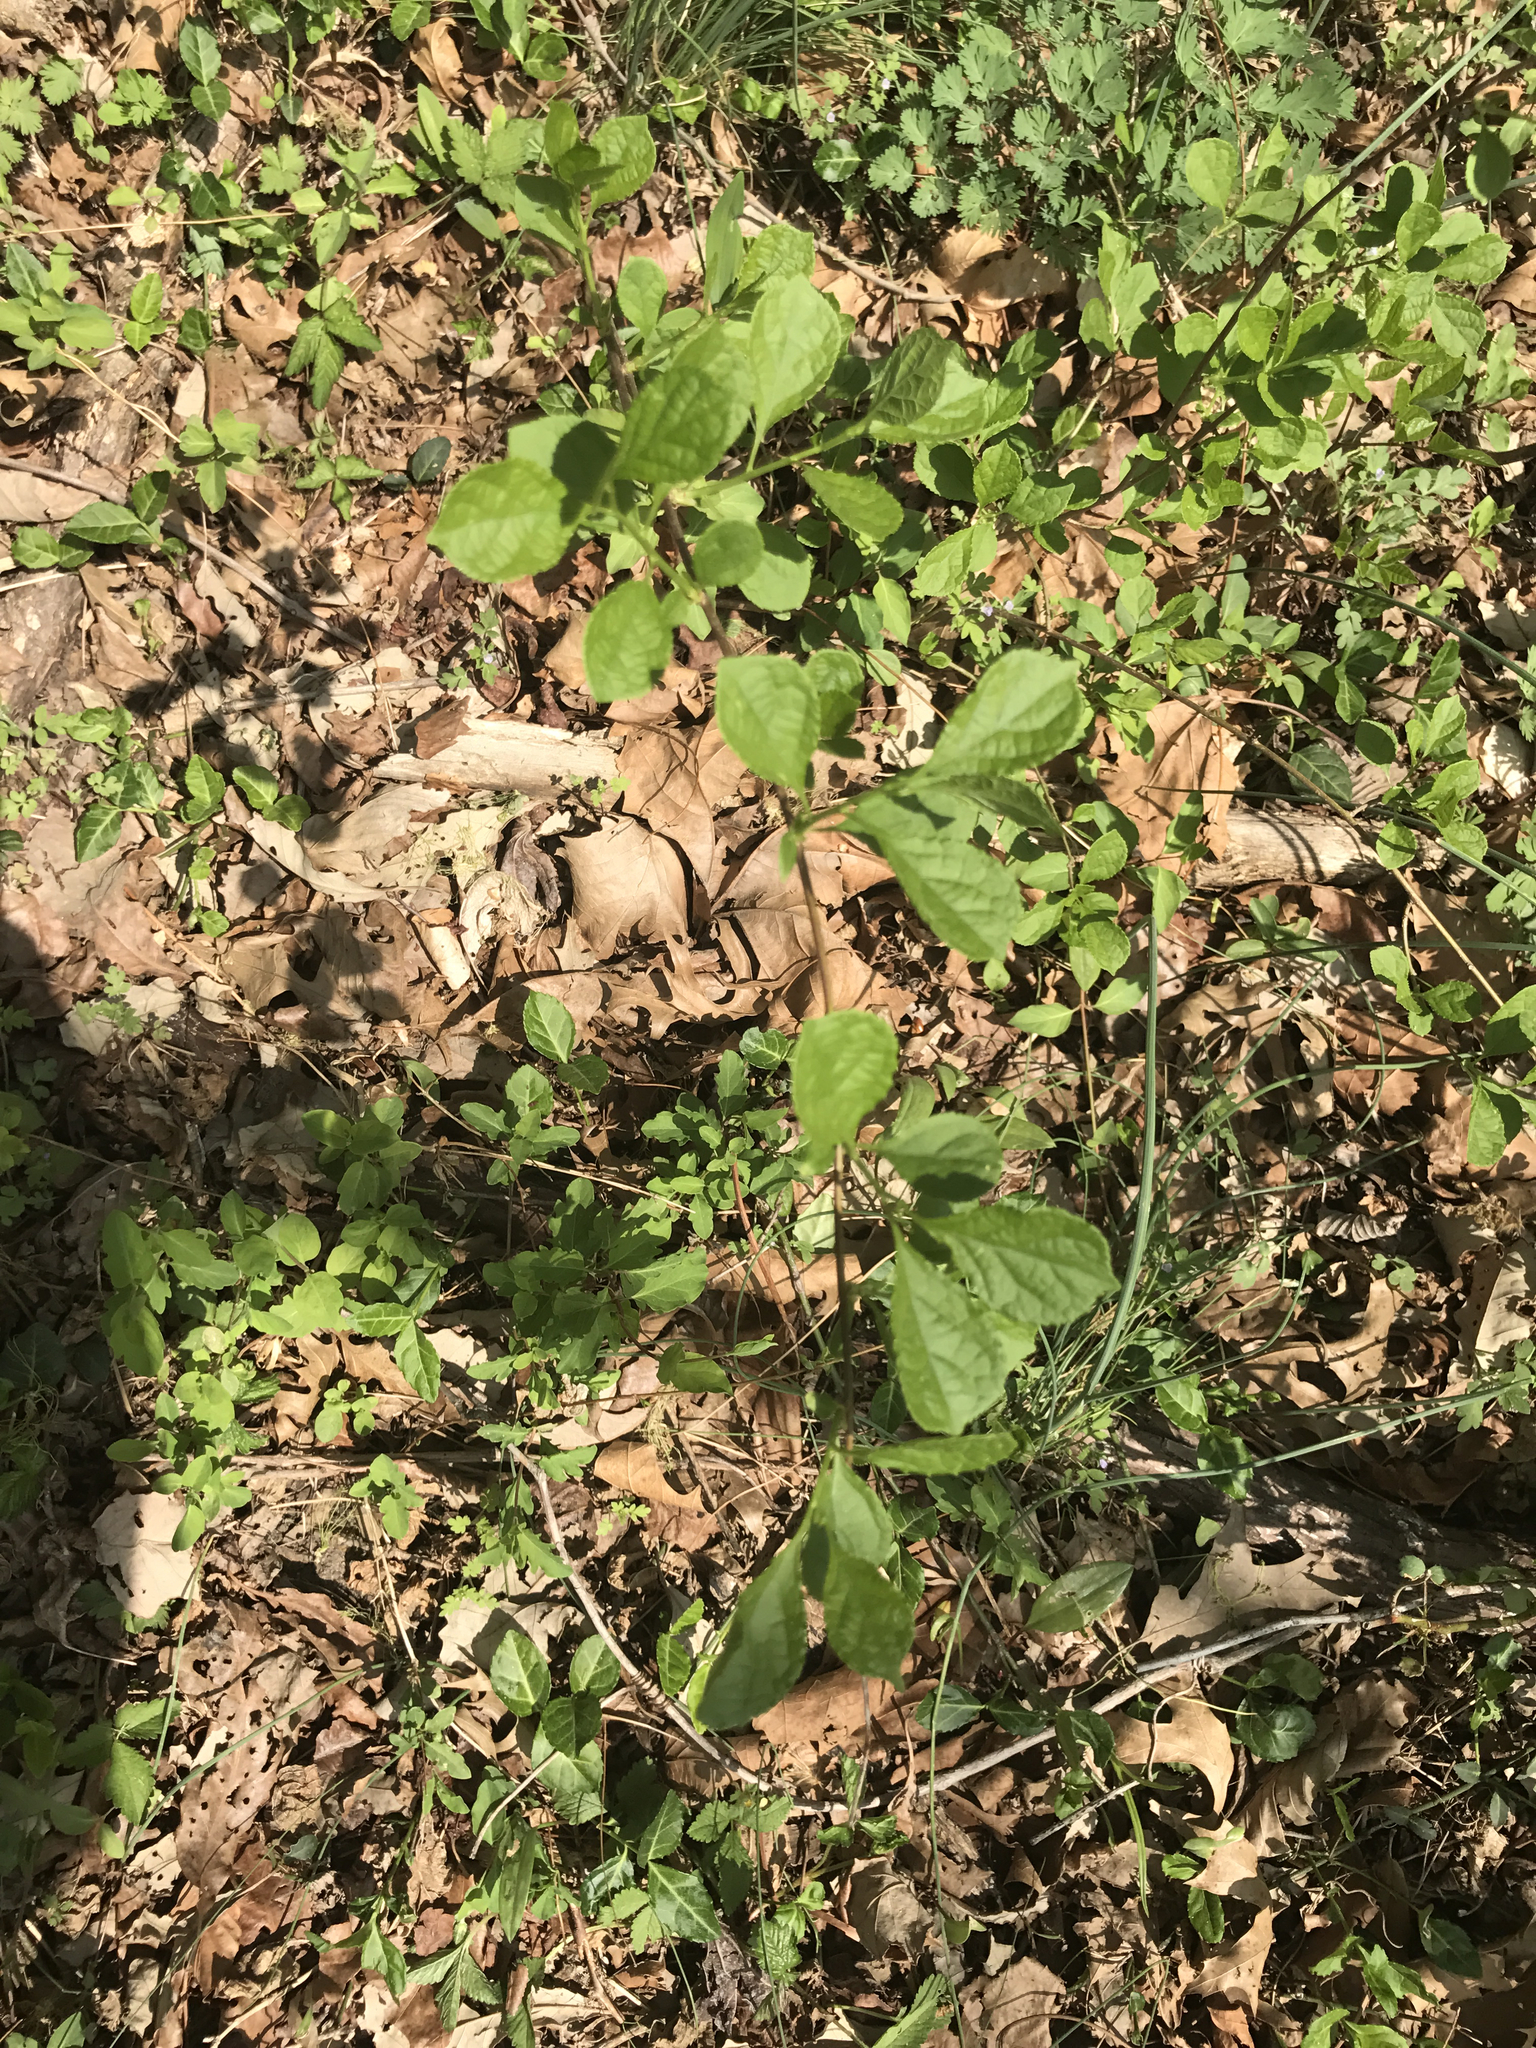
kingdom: Plantae
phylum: Tracheophyta
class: Magnoliopsida
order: Celastrales
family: Celastraceae
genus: Celastrus
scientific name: Celastrus orbiculatus
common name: Oriental bittersweet
